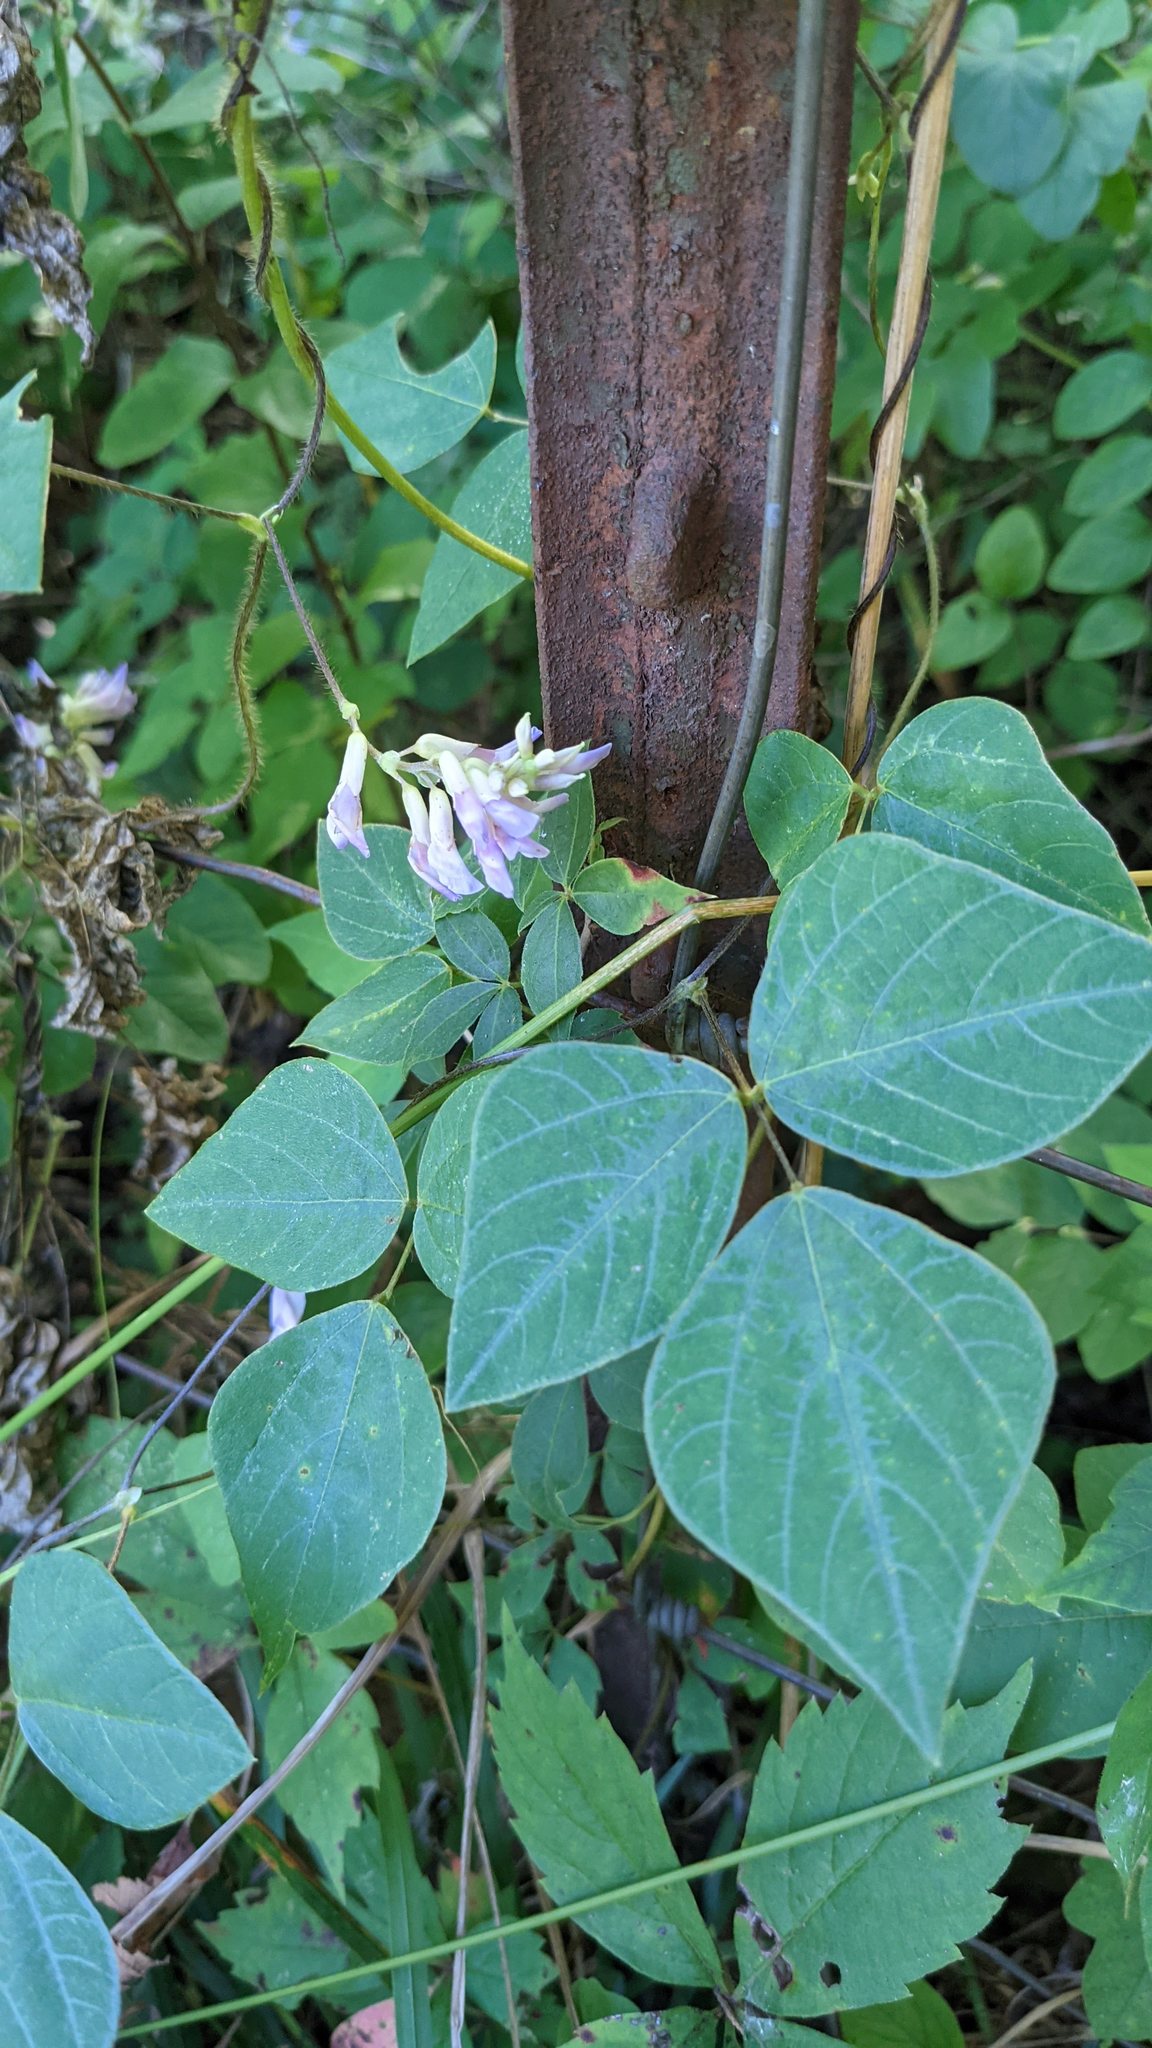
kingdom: Plantae
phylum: Tracheophyta
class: Magnoliopsida
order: Fabales
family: Fabaceae
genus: Amphicarpaea
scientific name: Amphicarpaea bracteata
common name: American hog peanut
